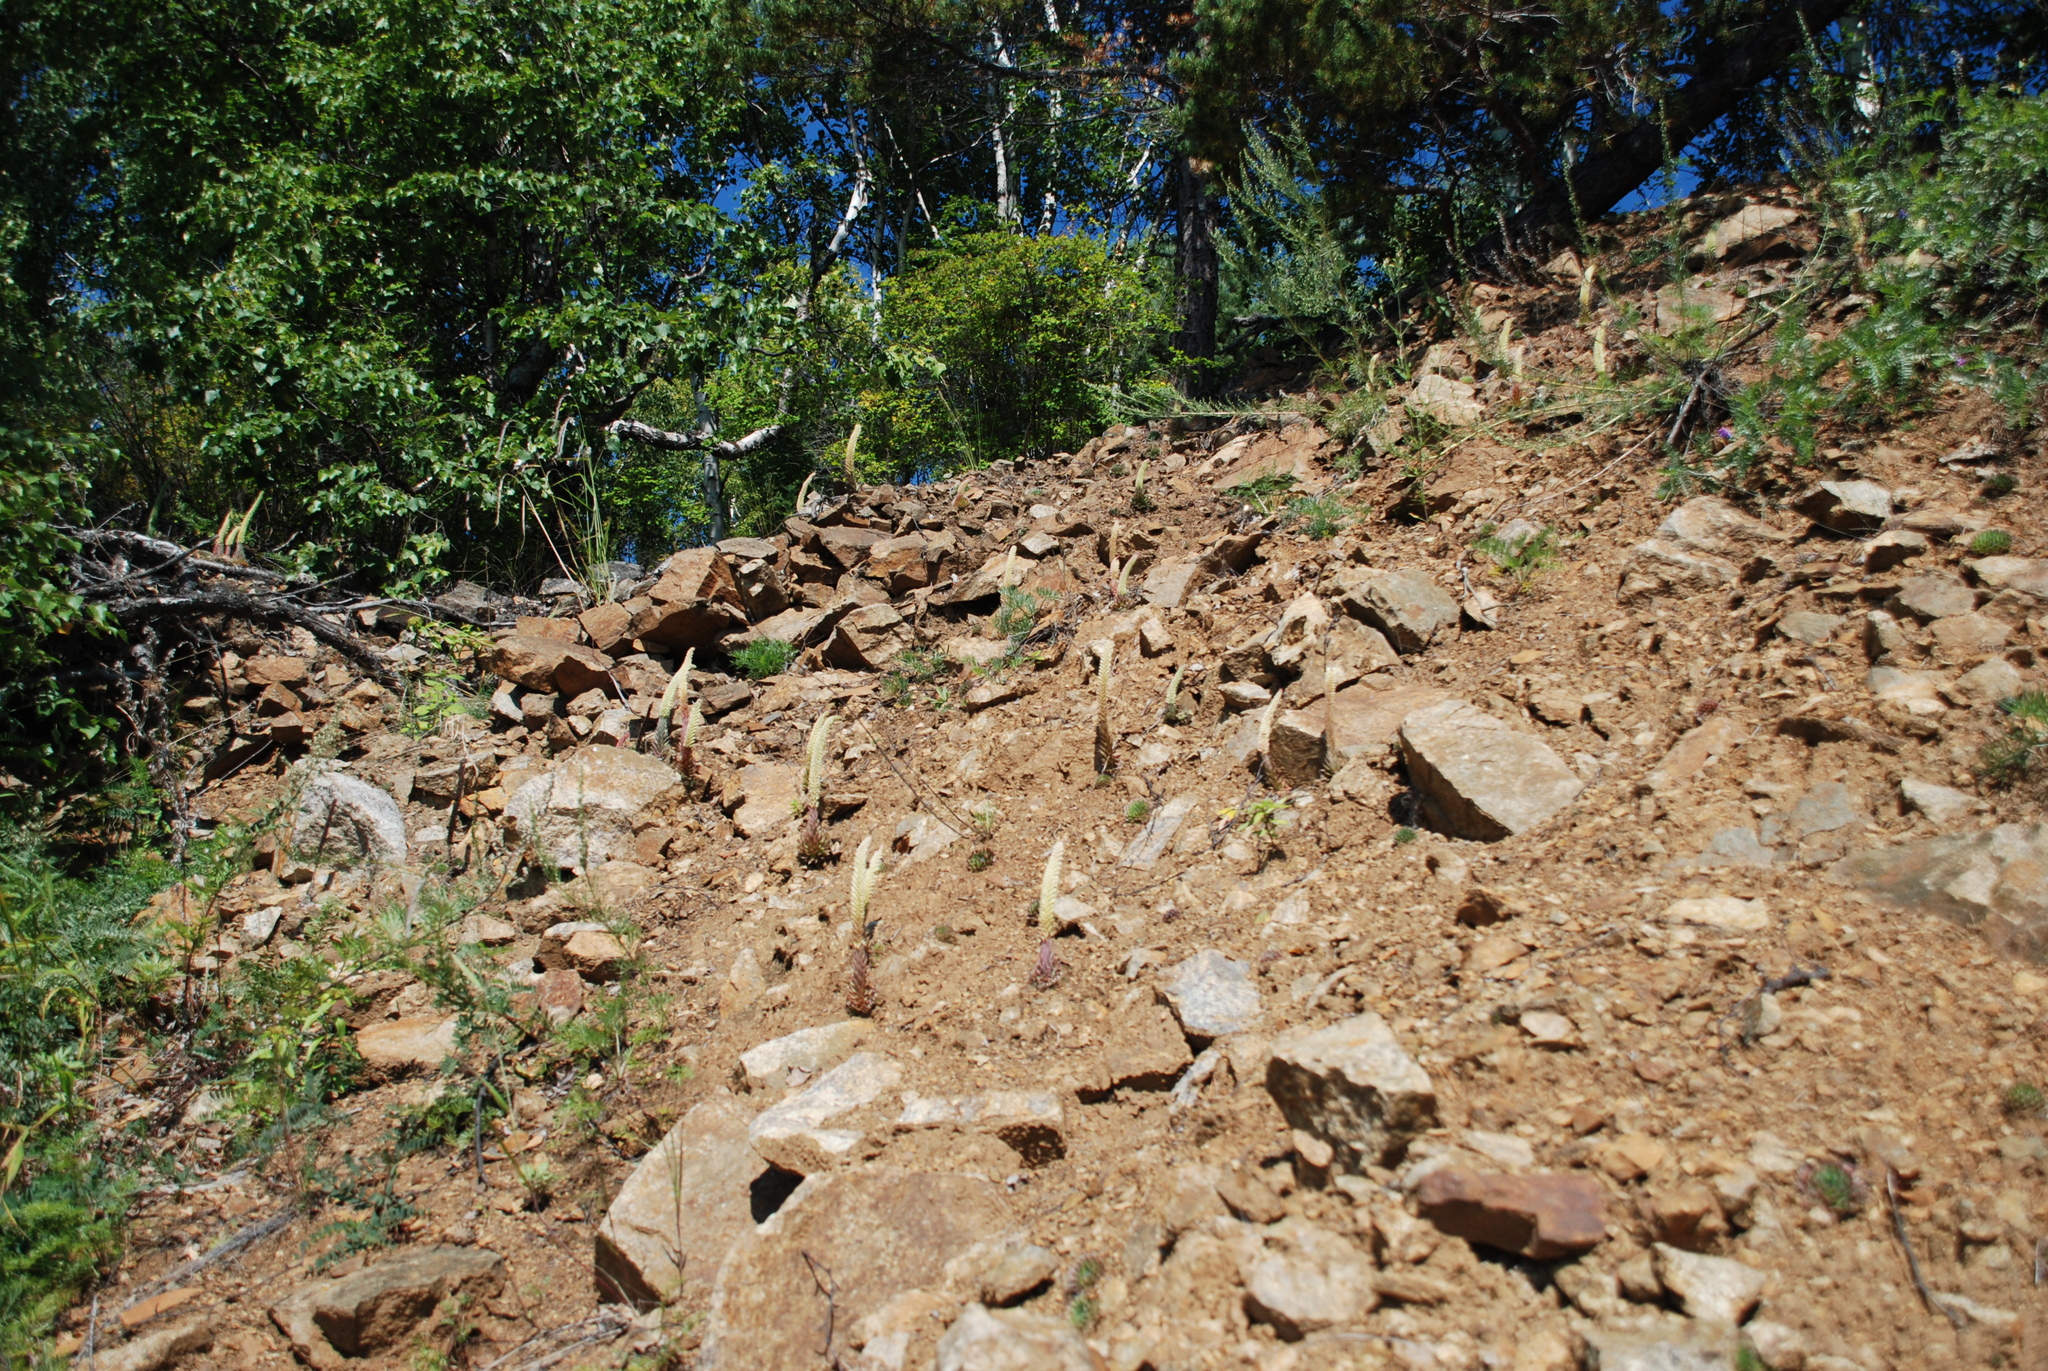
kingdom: Plantae
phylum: Tracheophyta
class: Magnoliopsida
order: Saxifragales
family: Crassulaceae
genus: Orostachys
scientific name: Orostachys spinosa
